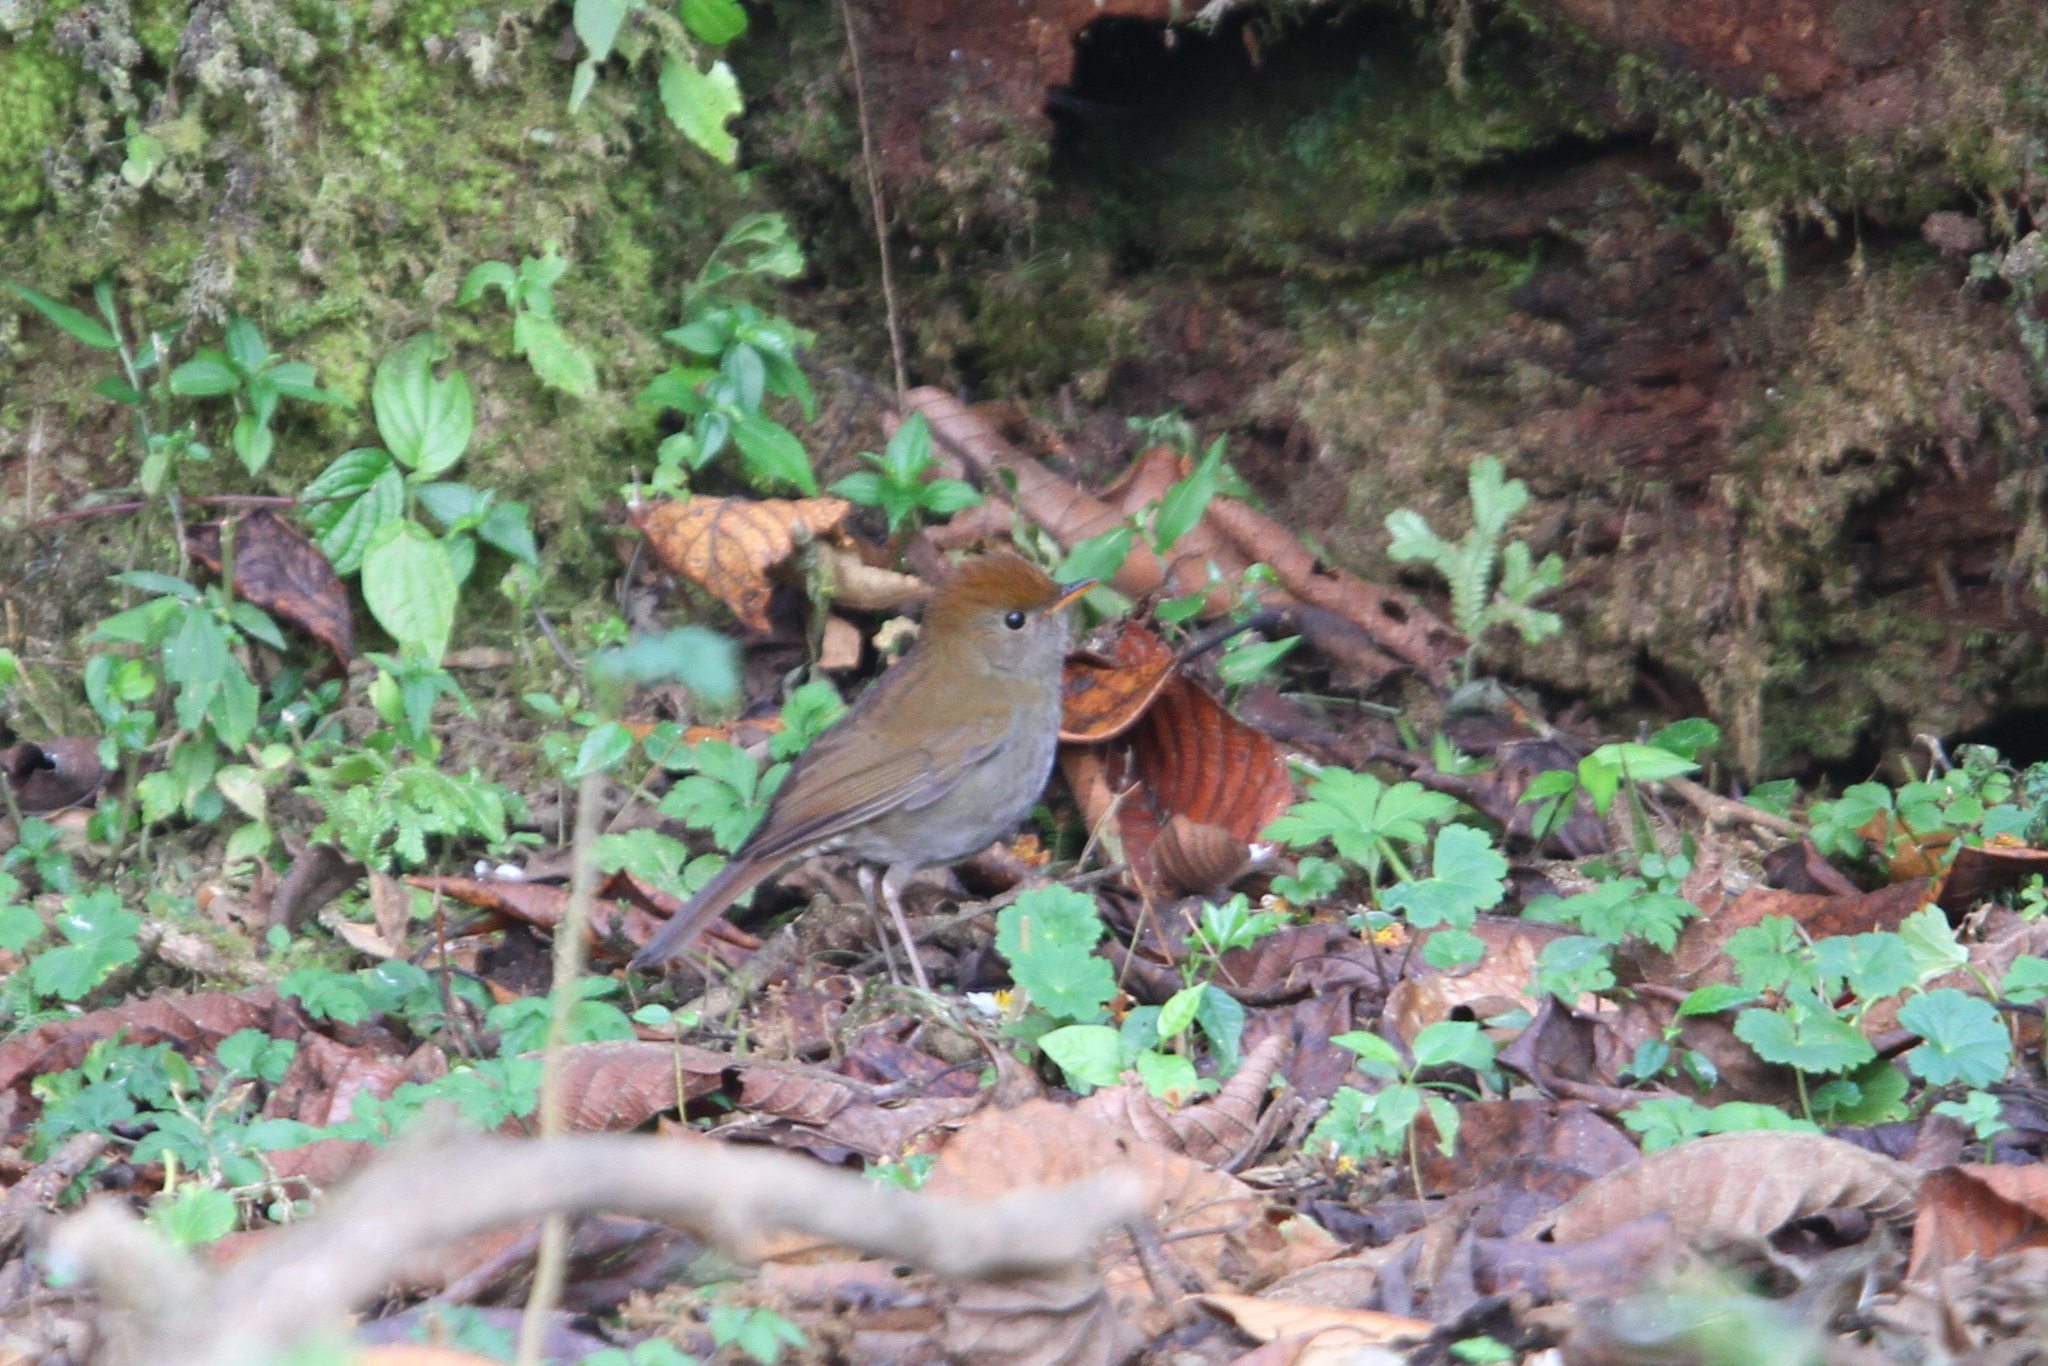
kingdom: Animalia
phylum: Chordata
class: Aves
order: Passeriformes
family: Turdidae
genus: Catharus
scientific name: Catharus frantzii
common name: Ruddy-capped nightingale-thrush
